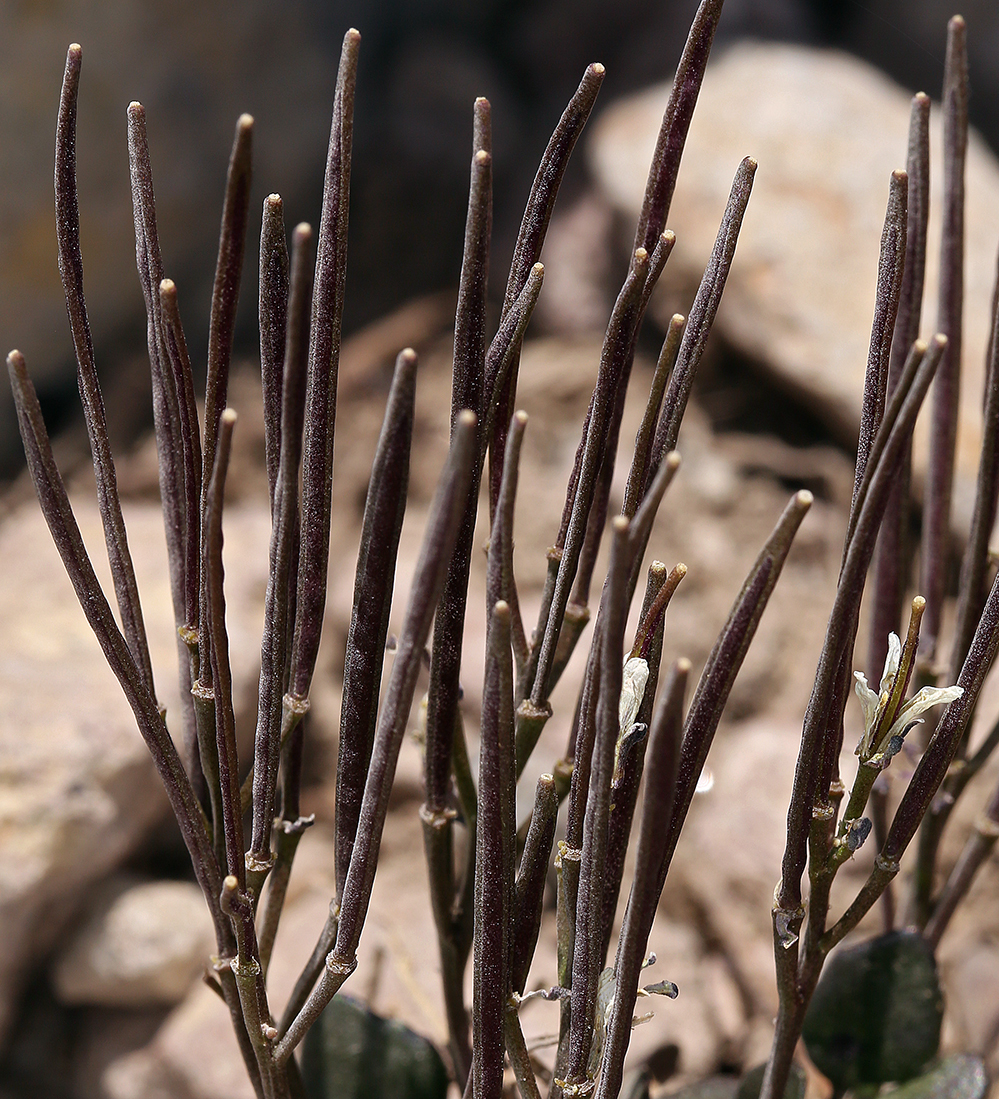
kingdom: Plantae
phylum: Tracheophyta
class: Magnoliopsida
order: Brassicales
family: Brassicaceae
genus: Cardamine
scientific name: Cardamine bellidifolia
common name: Alpine bittercress
